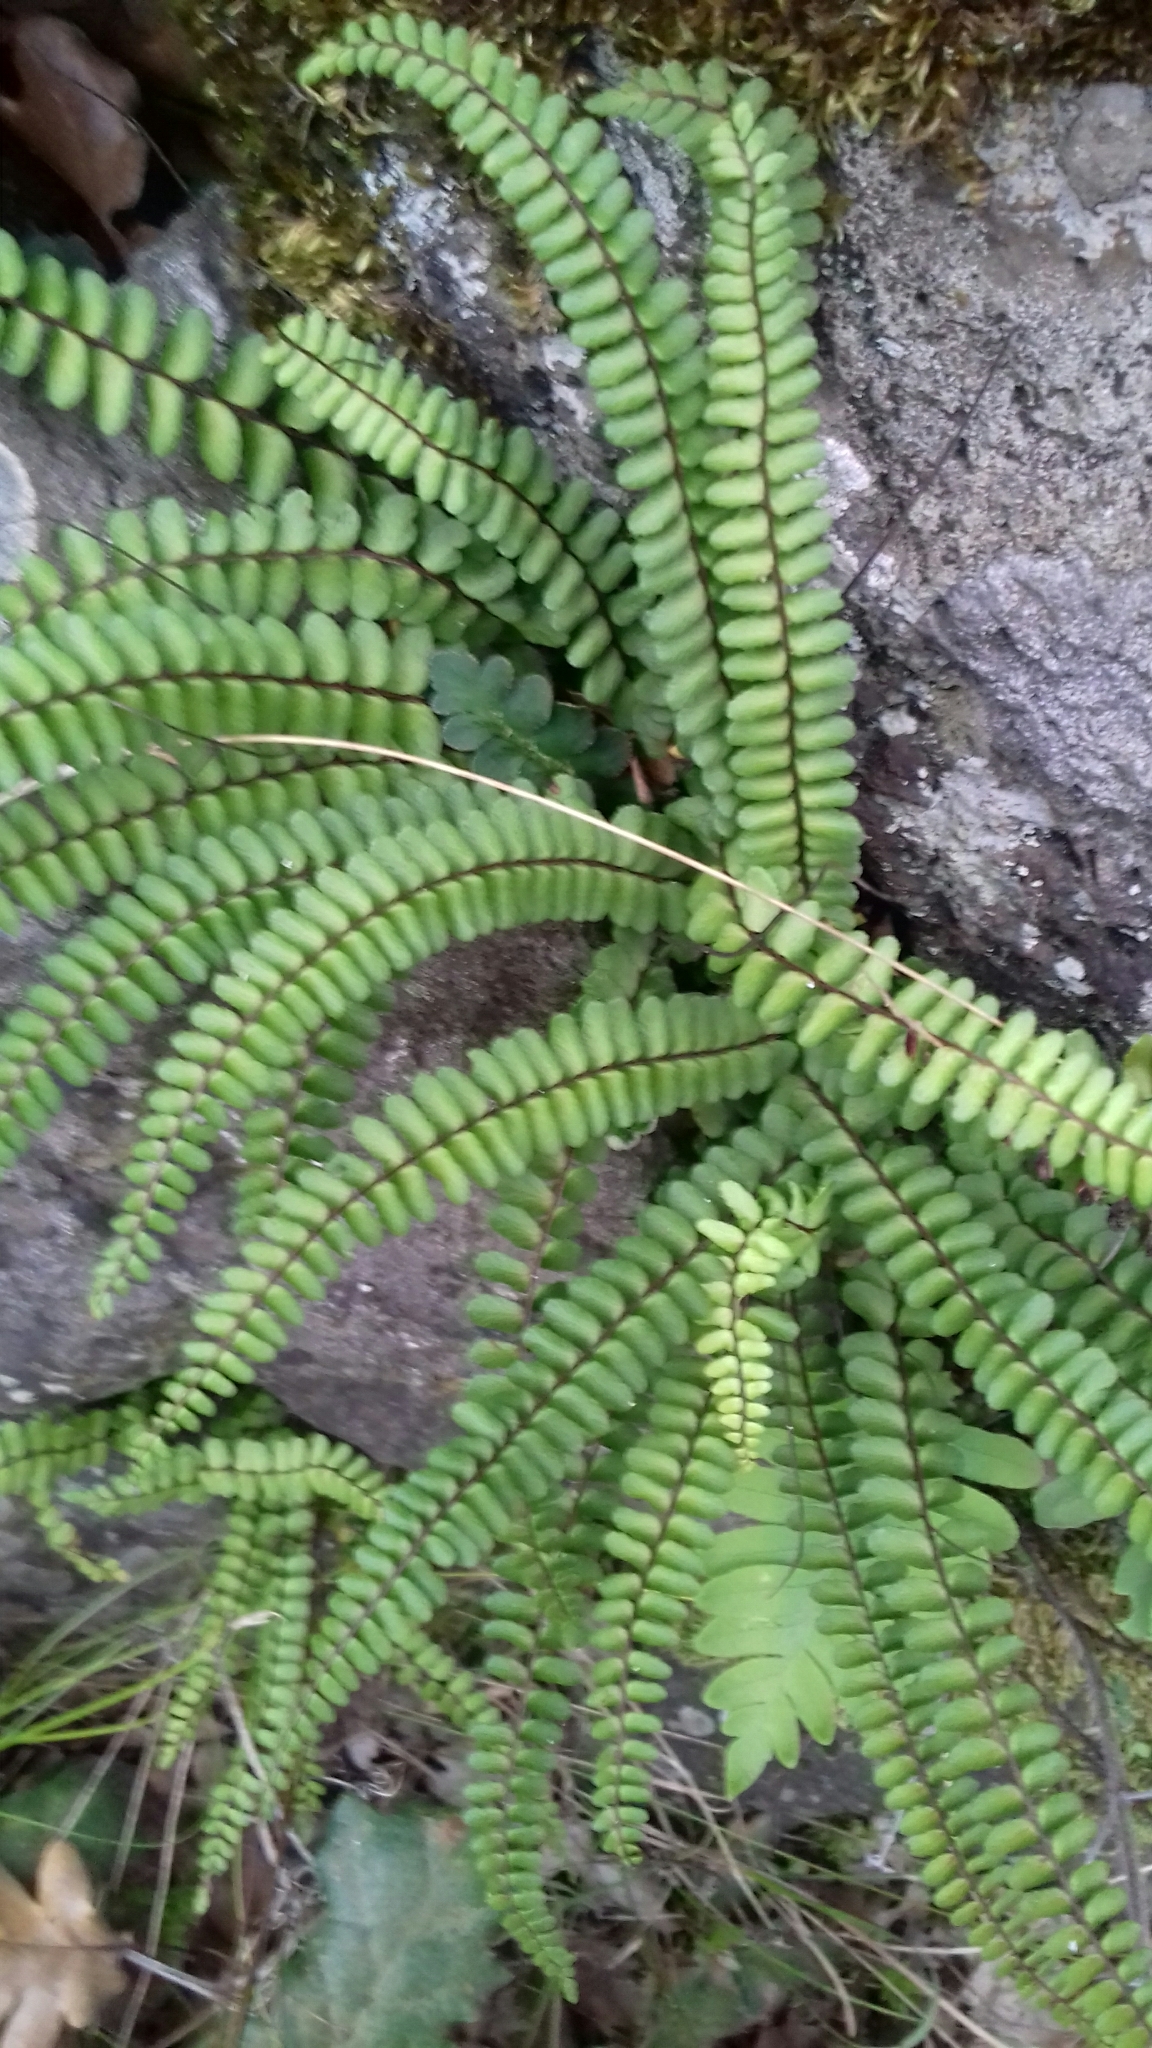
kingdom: Plantae
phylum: Tracheophyta
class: Polypodiopsida
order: Polypodiales
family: Aspleniaceae
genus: Asplenium
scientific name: Asplenium trichomanes
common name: Maidenhair spleenwort
